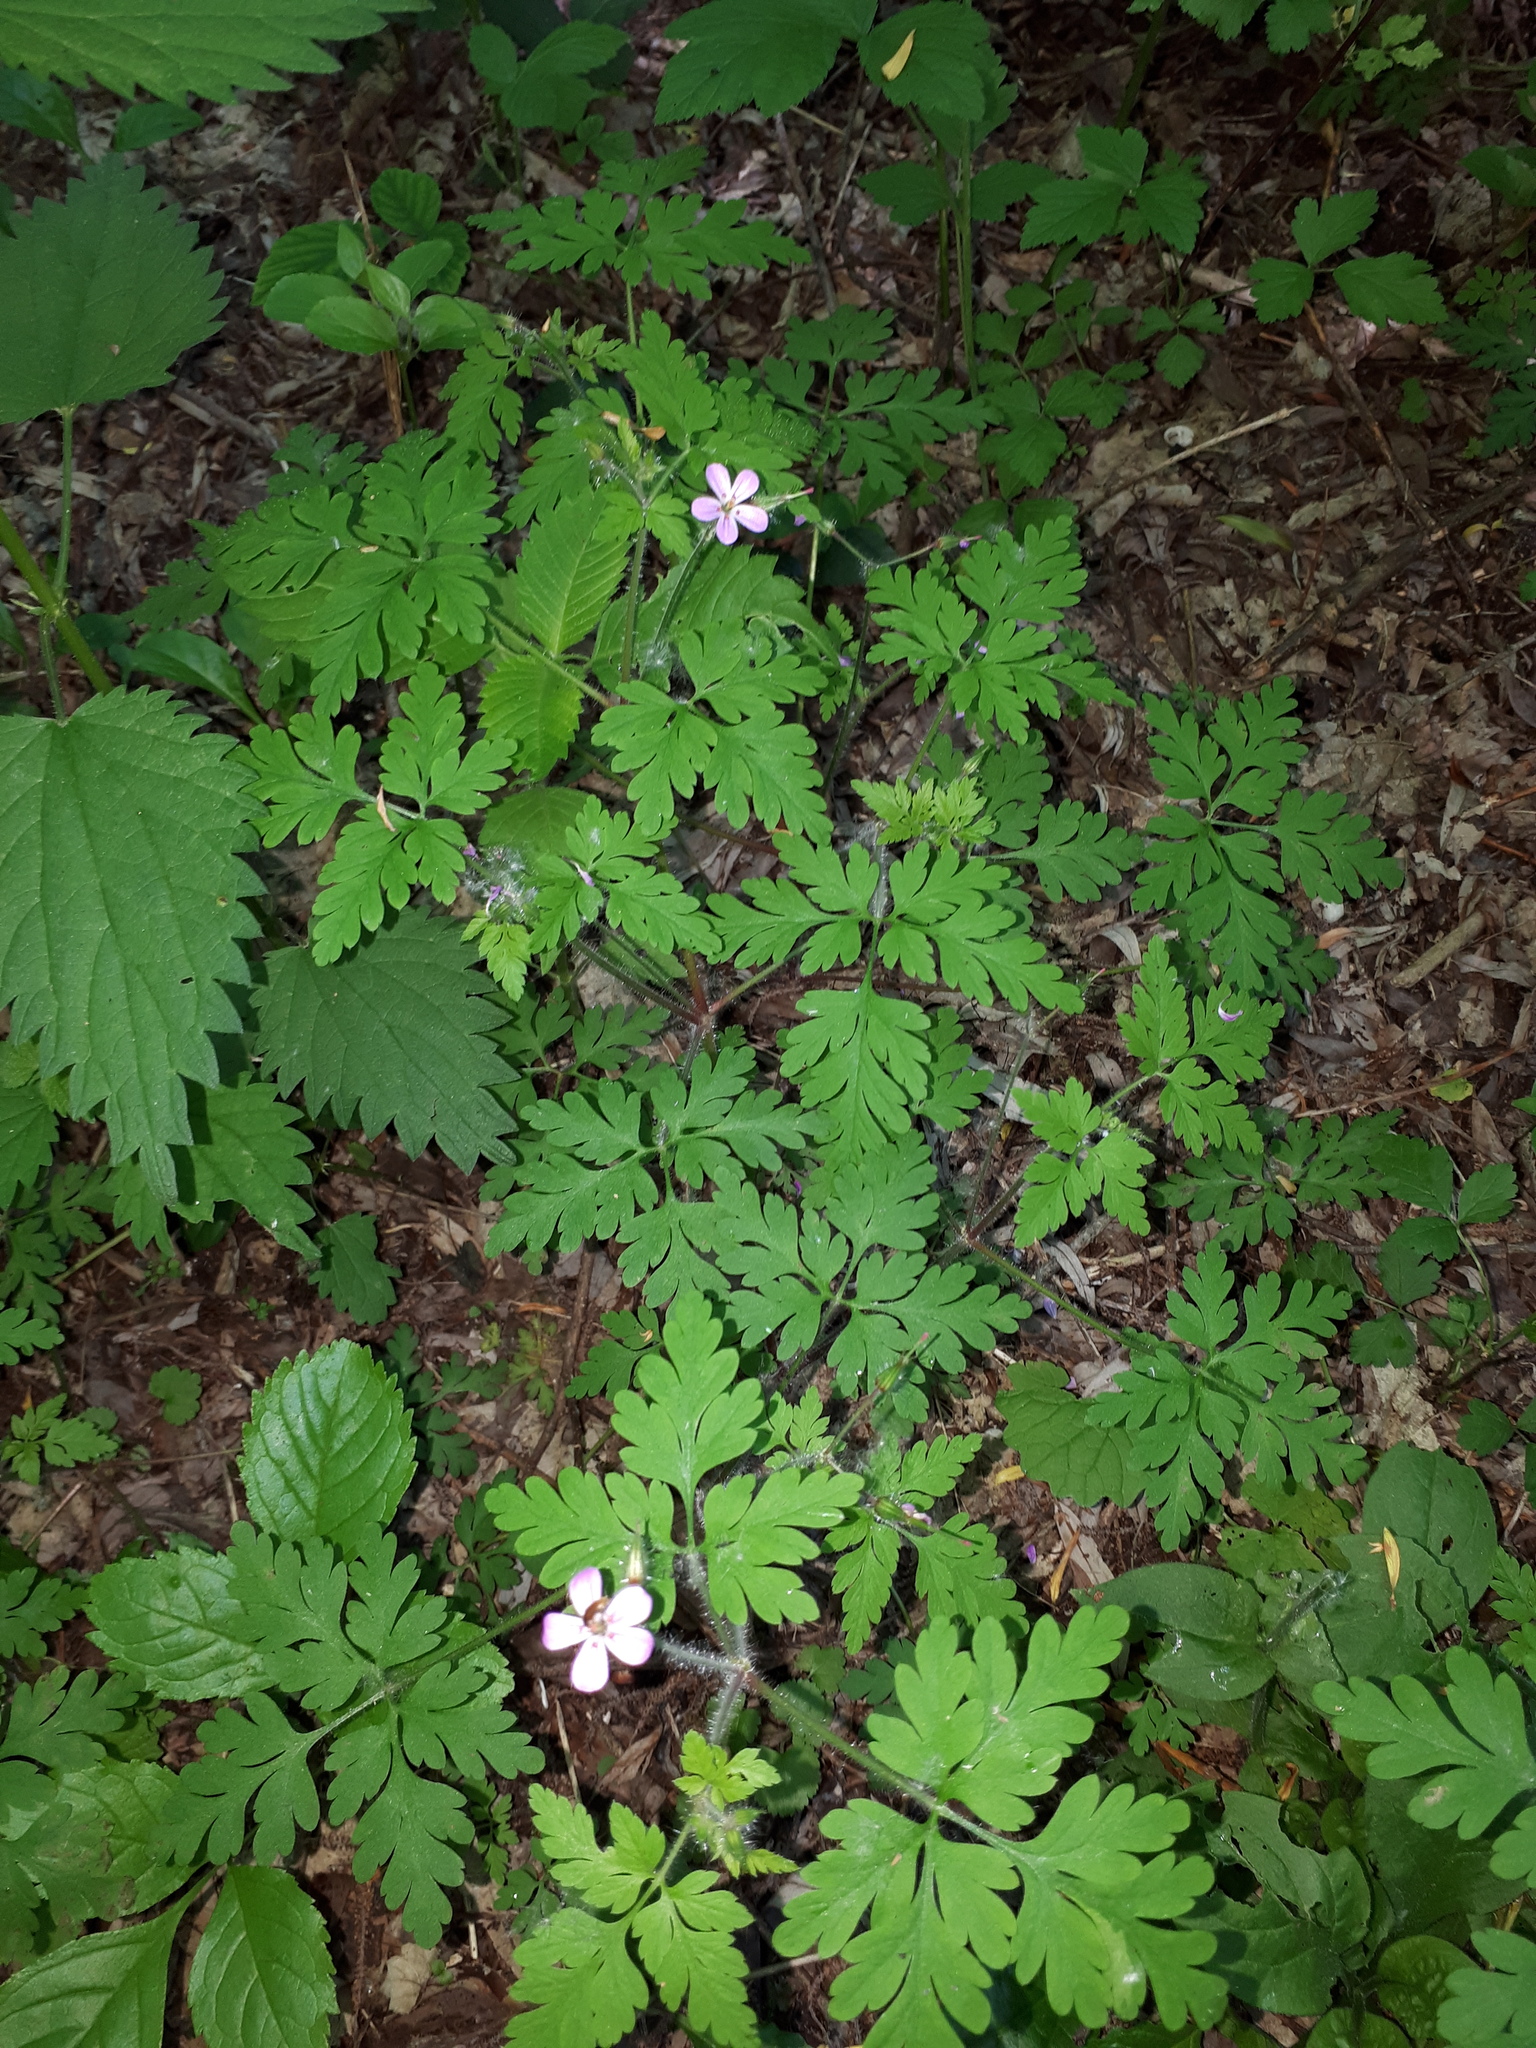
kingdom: Plantae
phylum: Tracheophyta
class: Magnoliopsida
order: Geraniales
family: Geraniaceae
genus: Geranium
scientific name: Geranium robertianum
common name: Herb-robert
